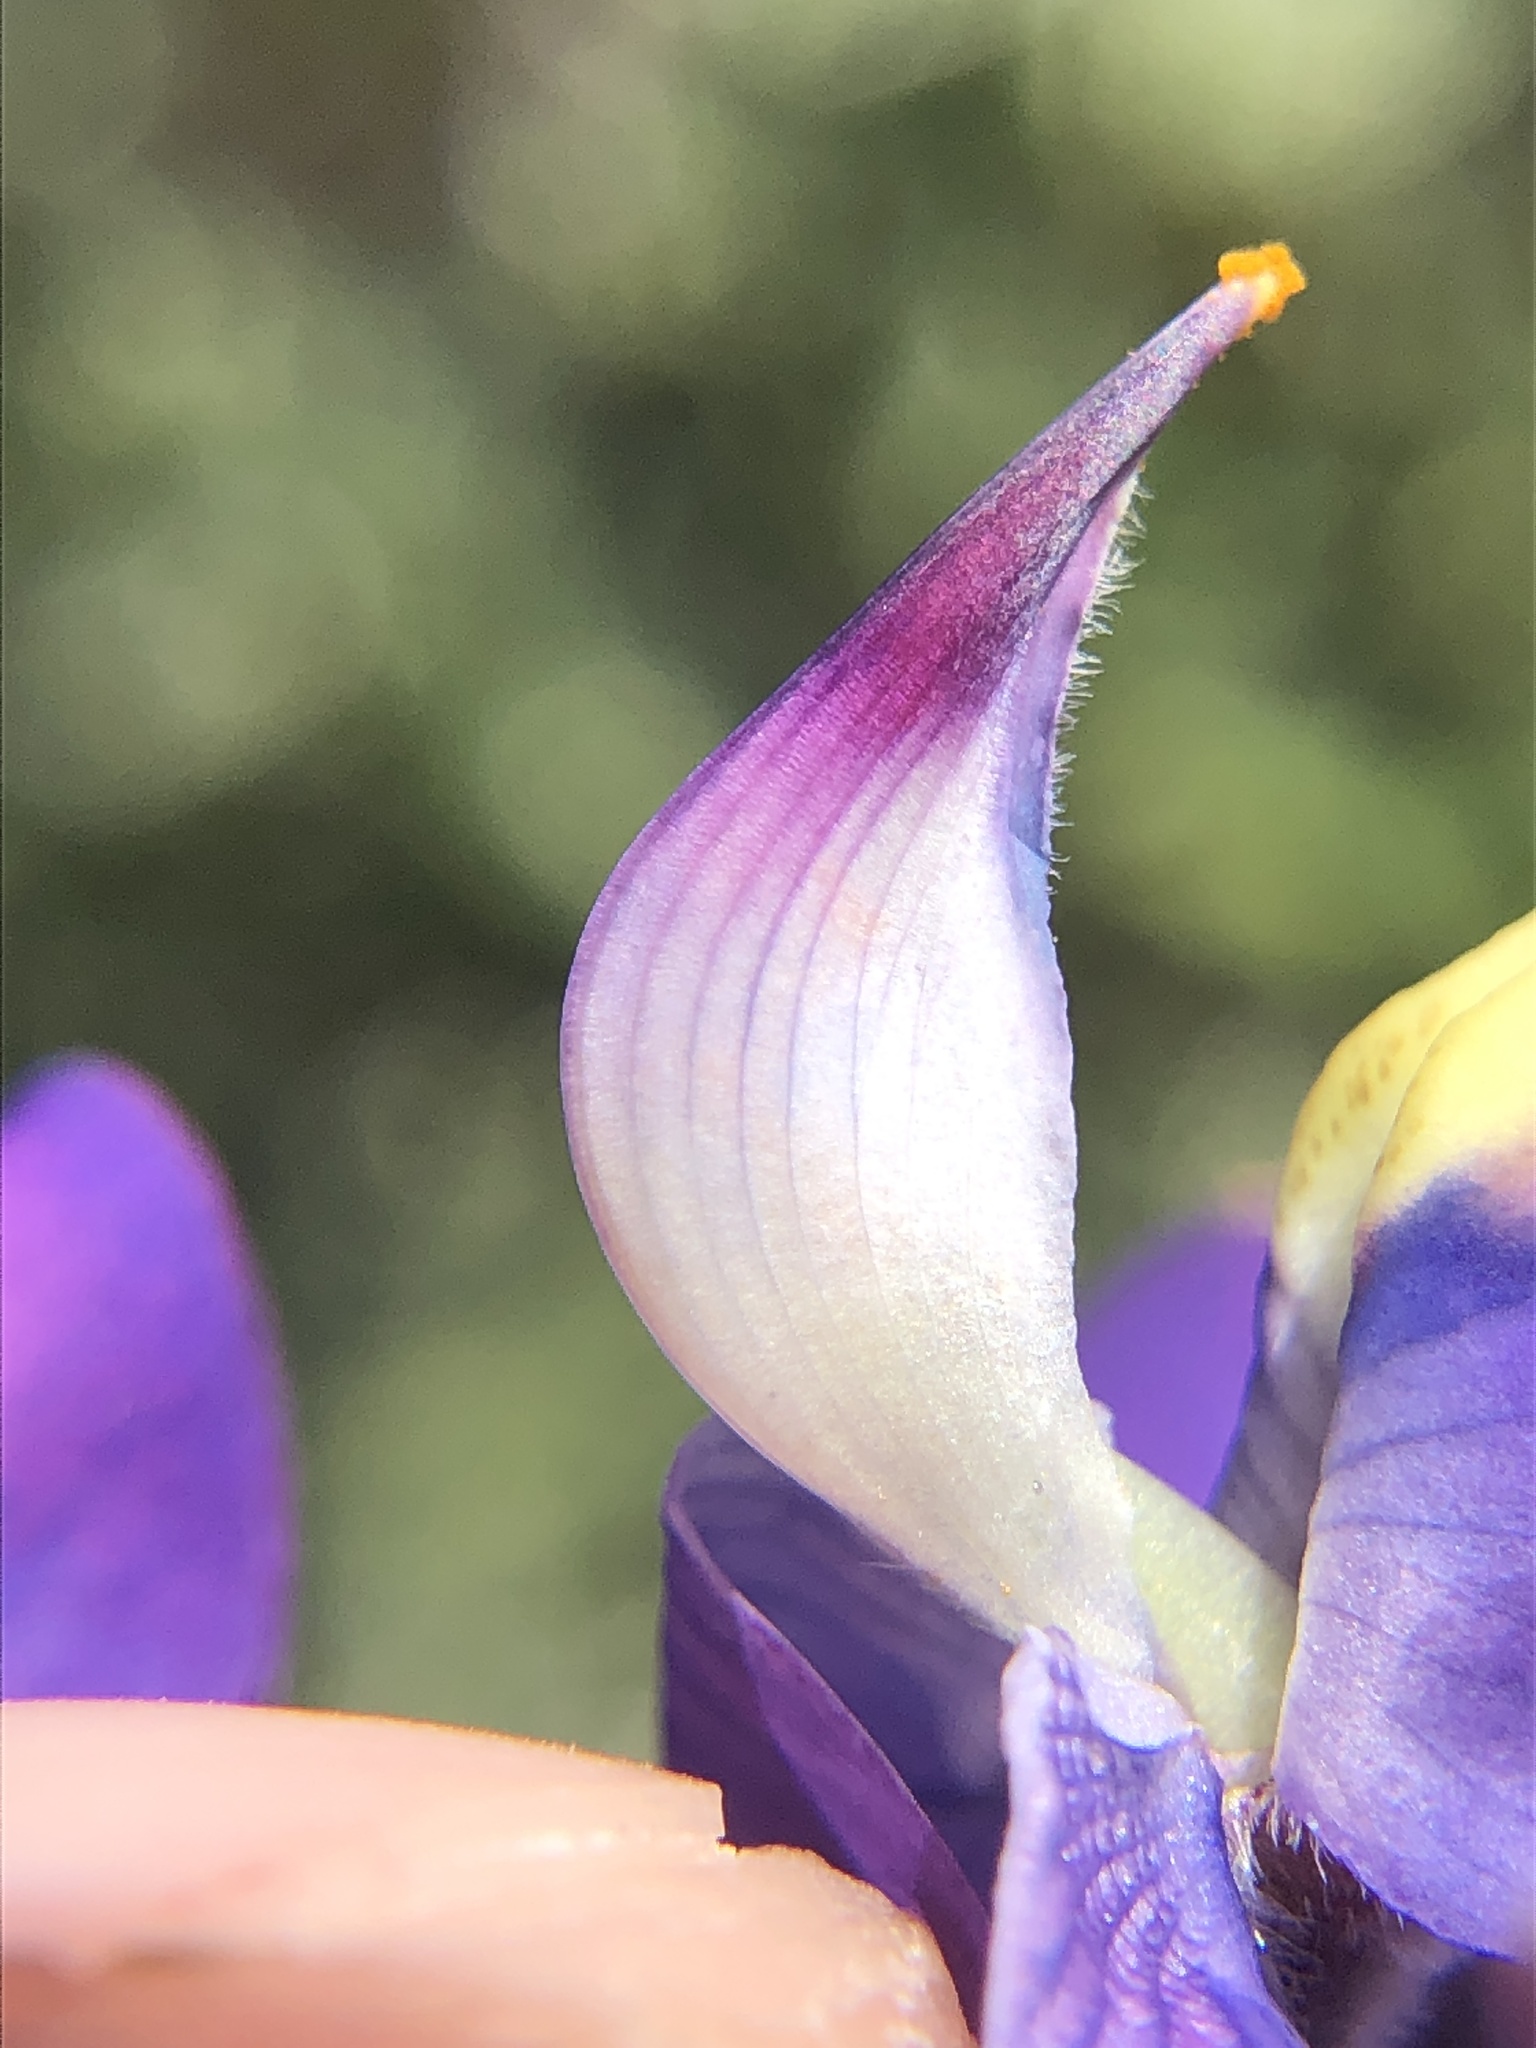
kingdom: Plantae
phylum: Tracheophyta
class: Magnoliopsida
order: Fabales
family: Fabaceae
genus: Lupinus
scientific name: Lupinus albifrons
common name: Foothill lupine
